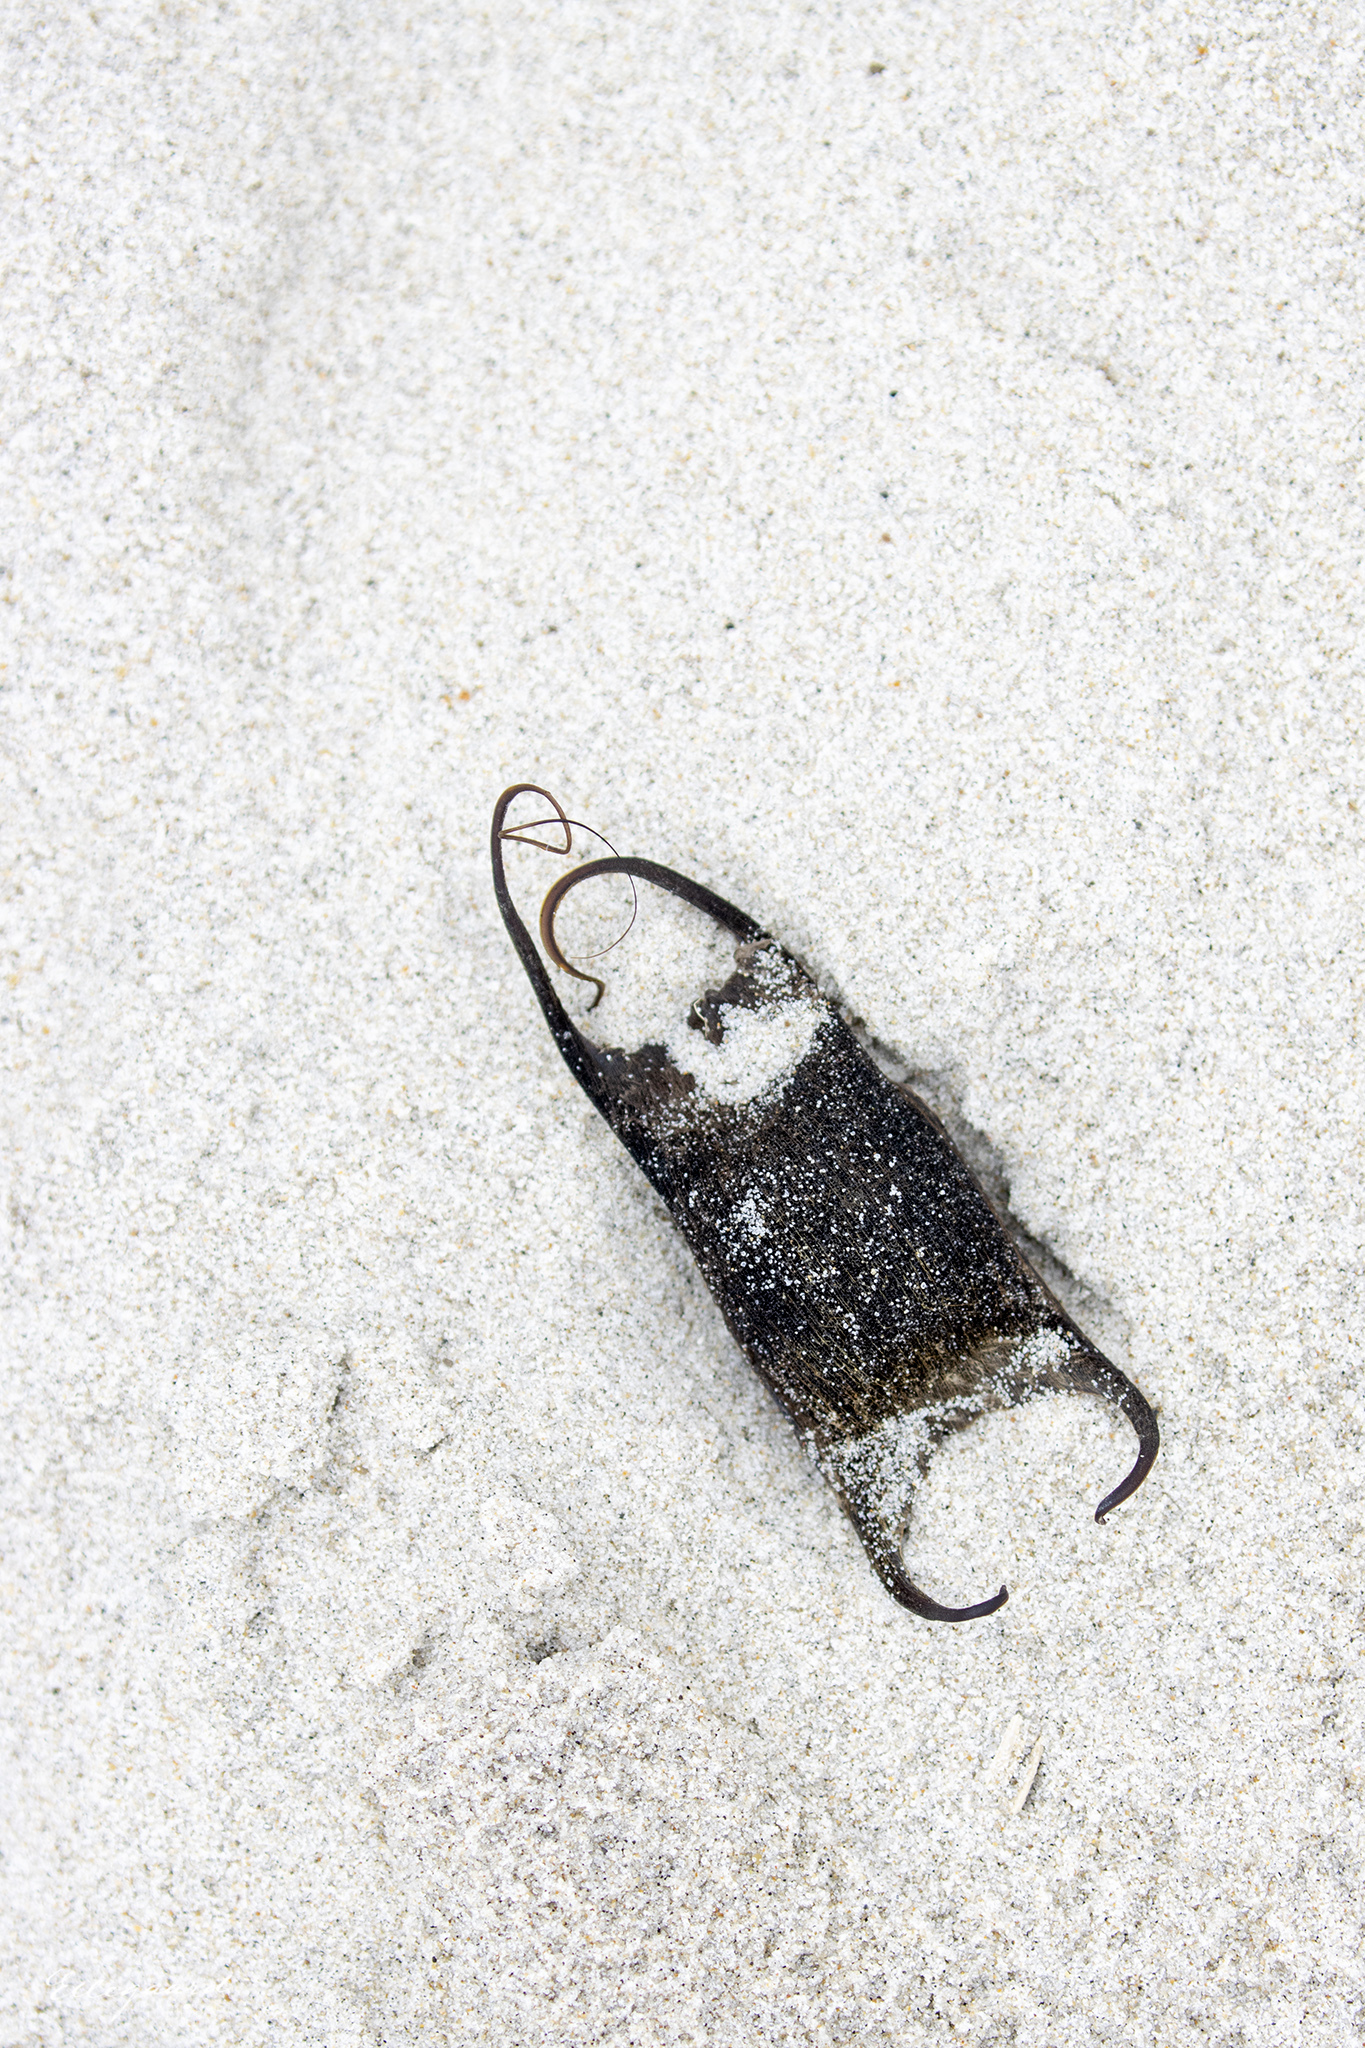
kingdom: Animalia
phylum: Chordata
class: Elasmobranchii
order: Rajiformes
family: Rajidae
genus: Amblyraja
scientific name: Amblyraja radiata
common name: Starry ray
